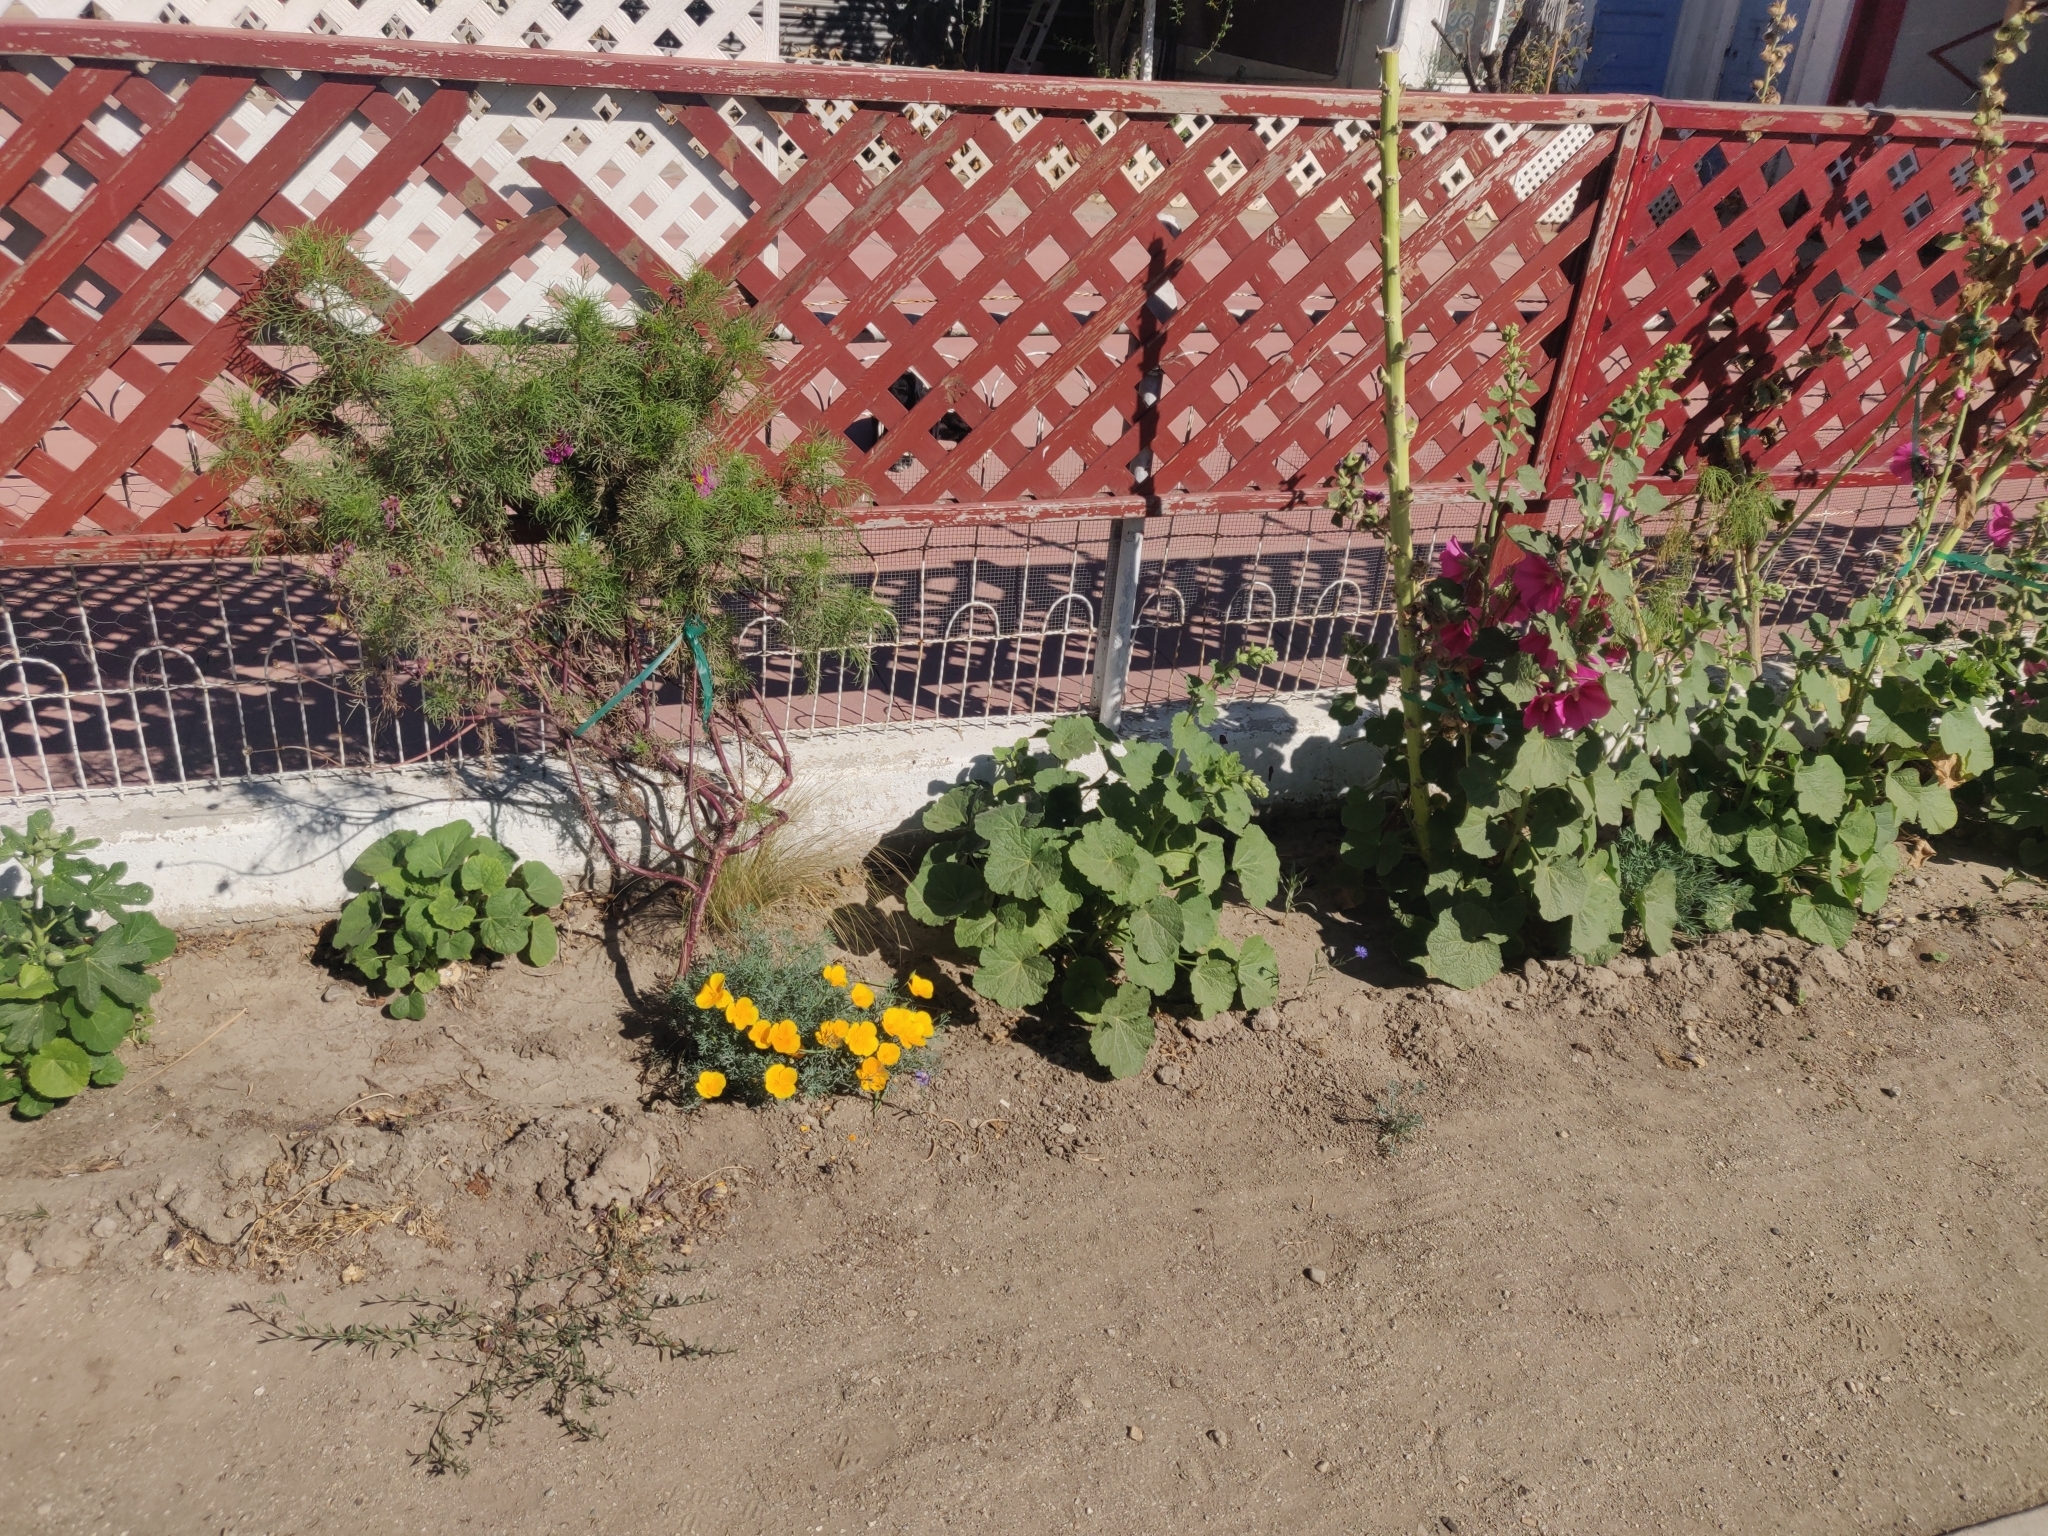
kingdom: Plantae
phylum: Tracheophyta
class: Magnoliopsida
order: Ranunculales
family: Papaveraceae
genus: Eschscholzia
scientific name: Eschscholzia californica
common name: California poppy
